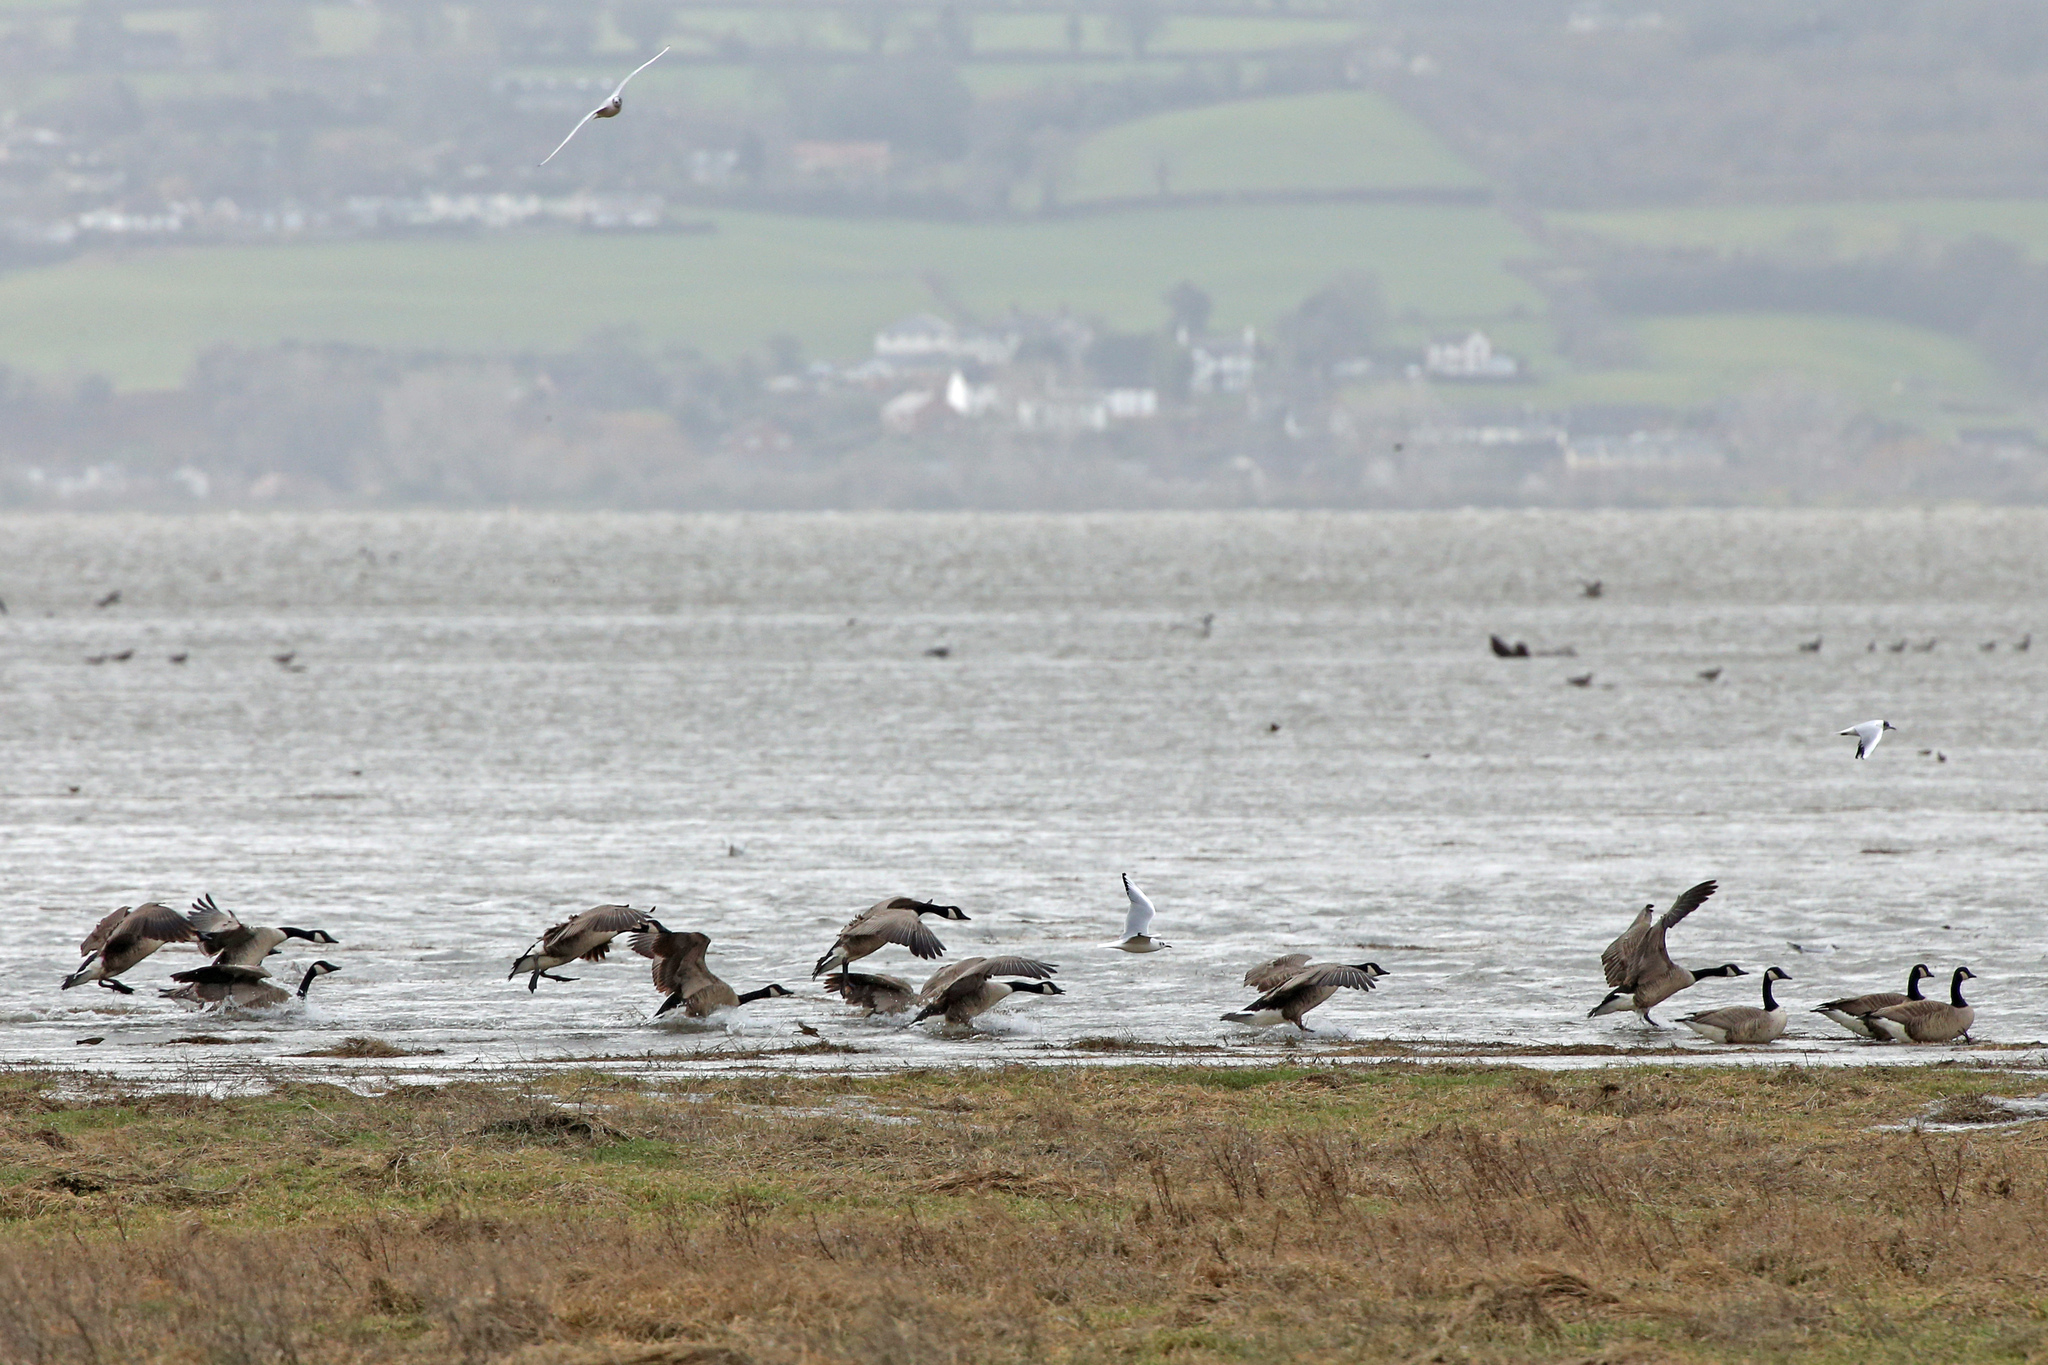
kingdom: Animalia
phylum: Chordata
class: Aves
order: Anseriformes
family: Anatidae
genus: Branta
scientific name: Branta canadensis
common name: Canada goose
